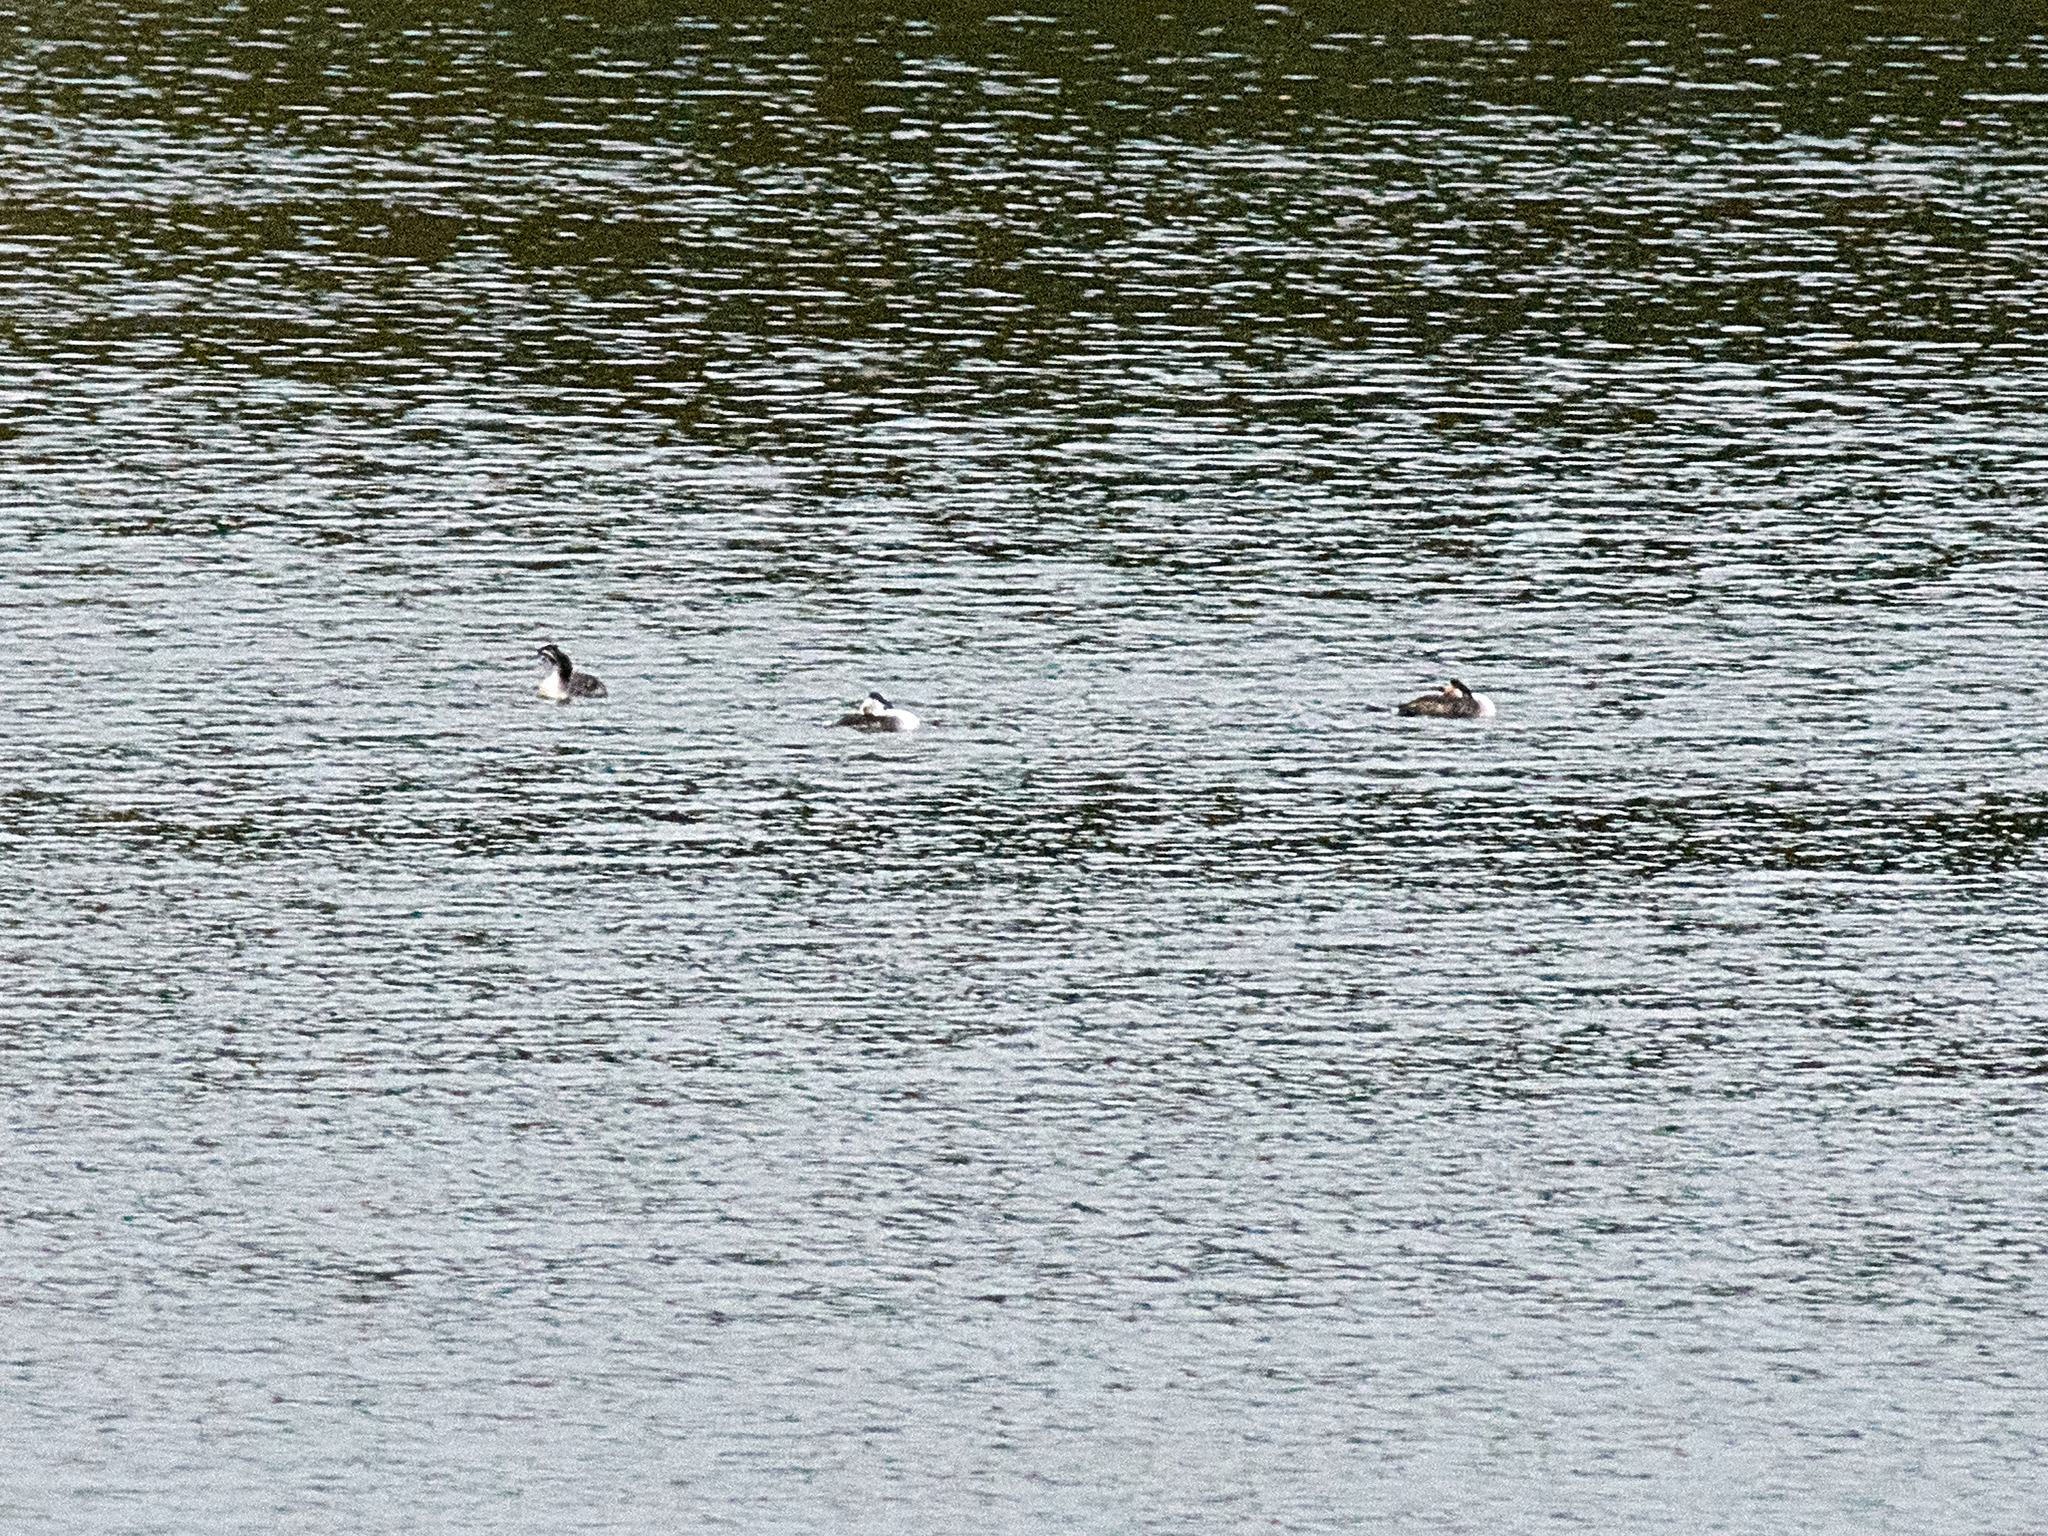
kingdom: Animalia
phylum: Chordata
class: Aves
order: Podicipediformes
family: Podicipedidae
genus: Podiceps
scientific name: Podiceps cristatus
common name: Great crested grebe
